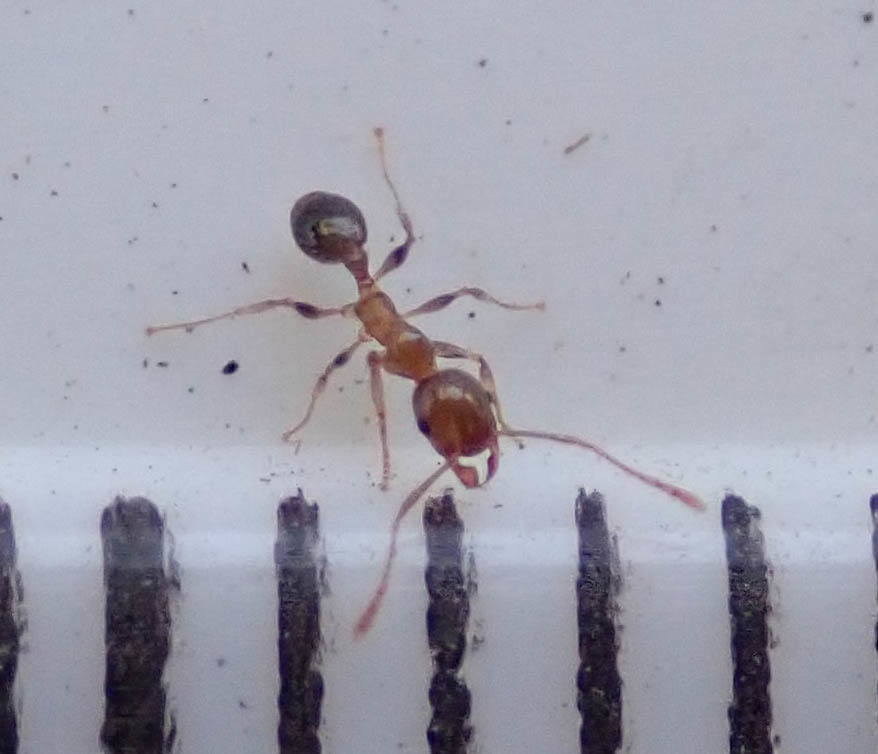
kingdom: Animalia
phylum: Arthropoda
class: Insecta
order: Hymenoptera
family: Formicidae
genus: Pheidole
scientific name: Pheidole megacephala
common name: Bigheaded ant
